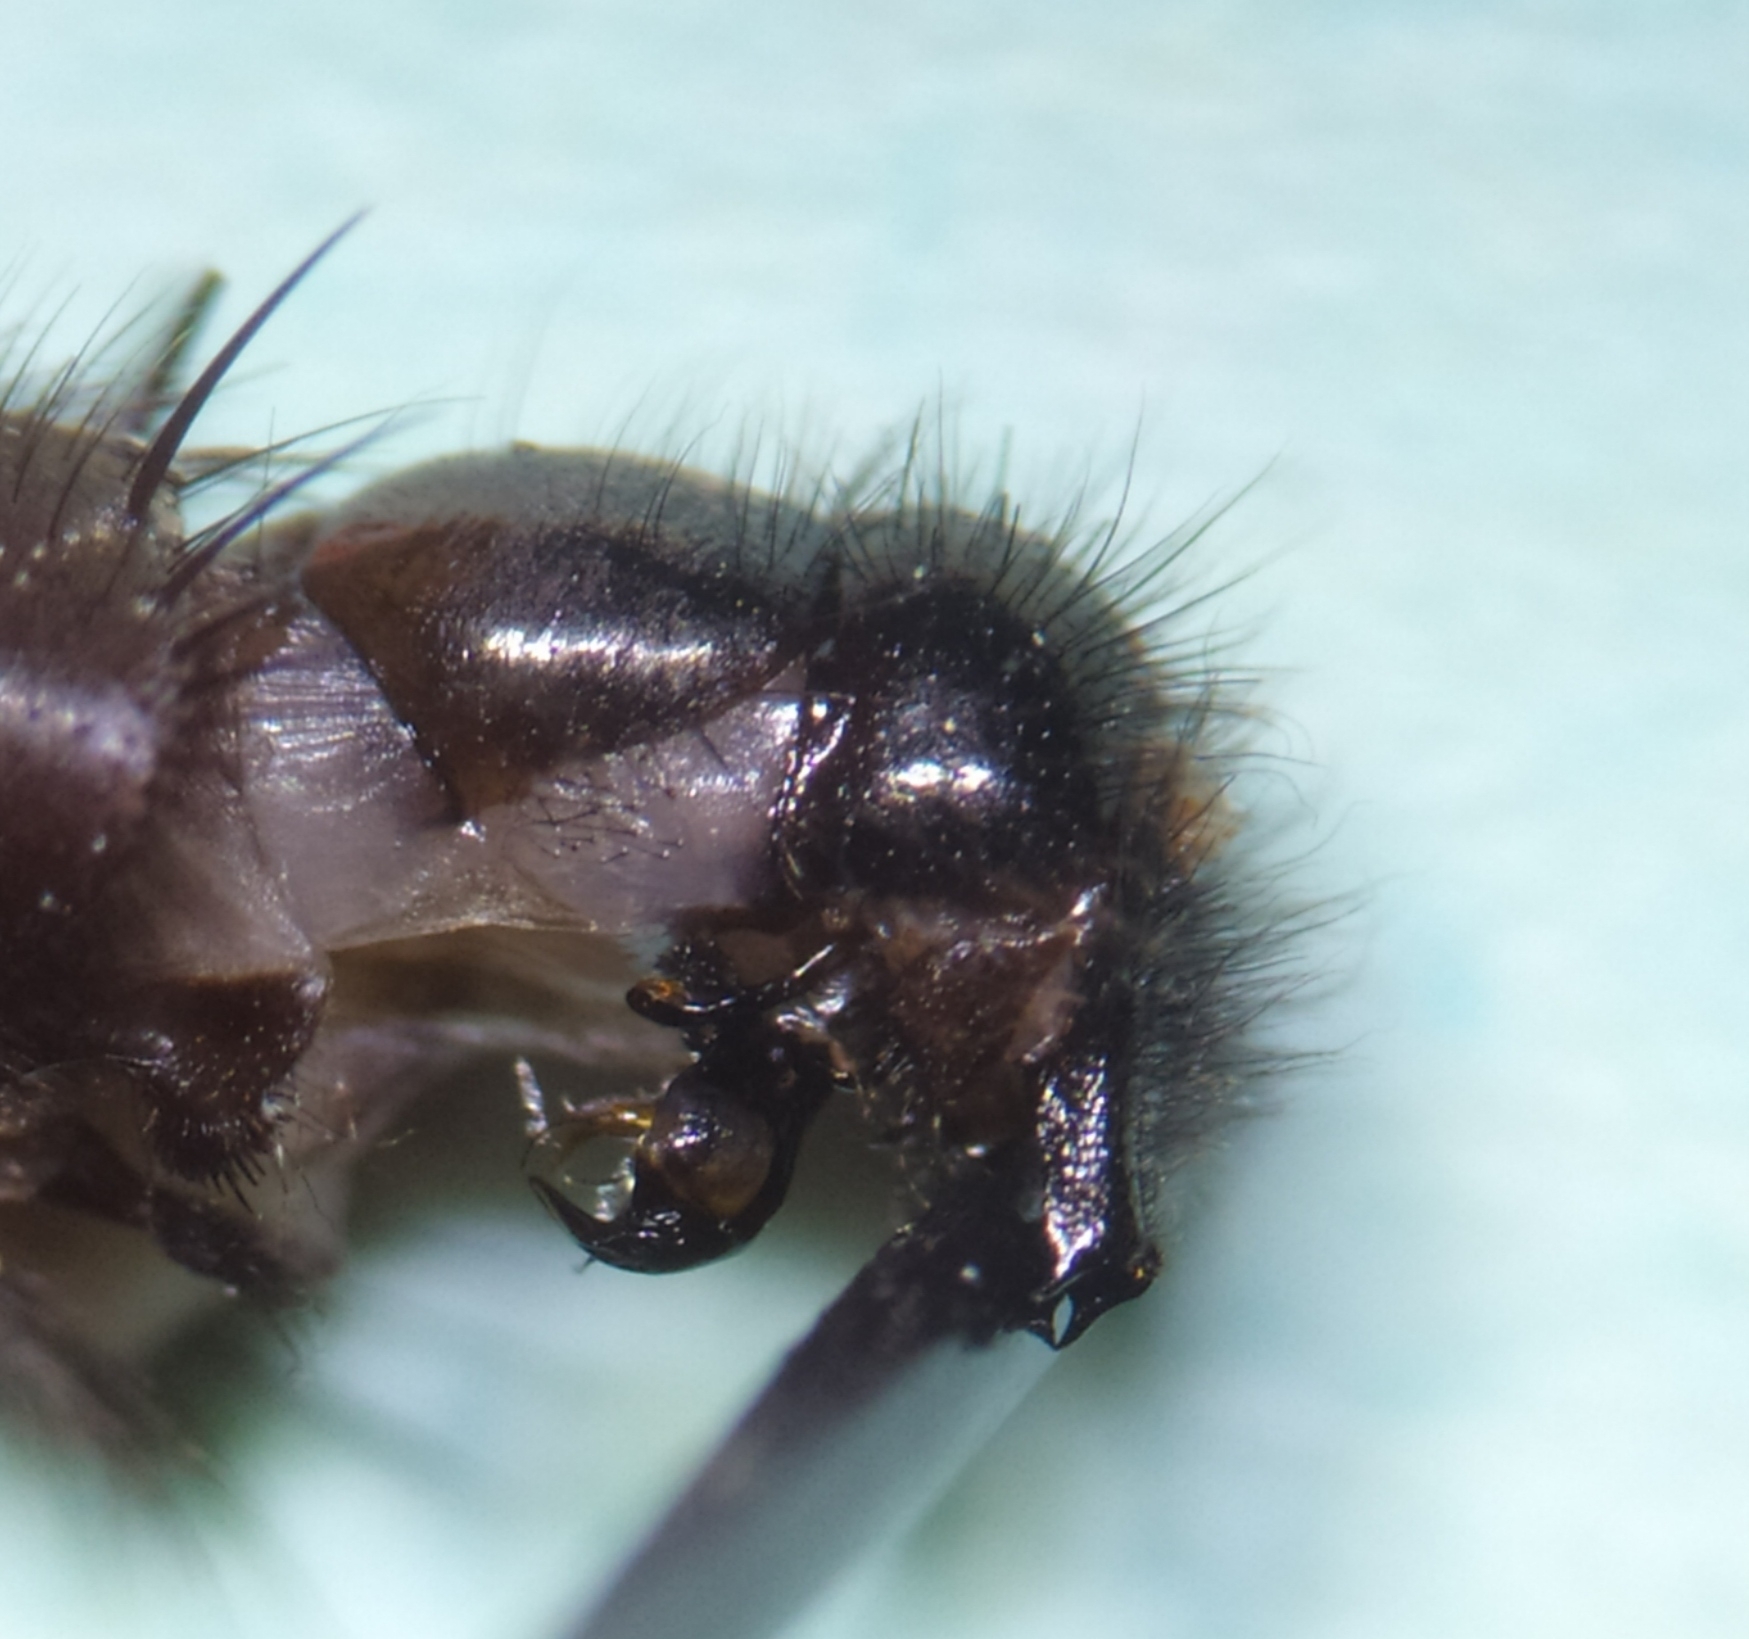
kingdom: Animalia
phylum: Arthropoda
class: Insecta
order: Diptera
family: Sarcophagidae
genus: Sarcophaga
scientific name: Sarcophaga incisilobata
